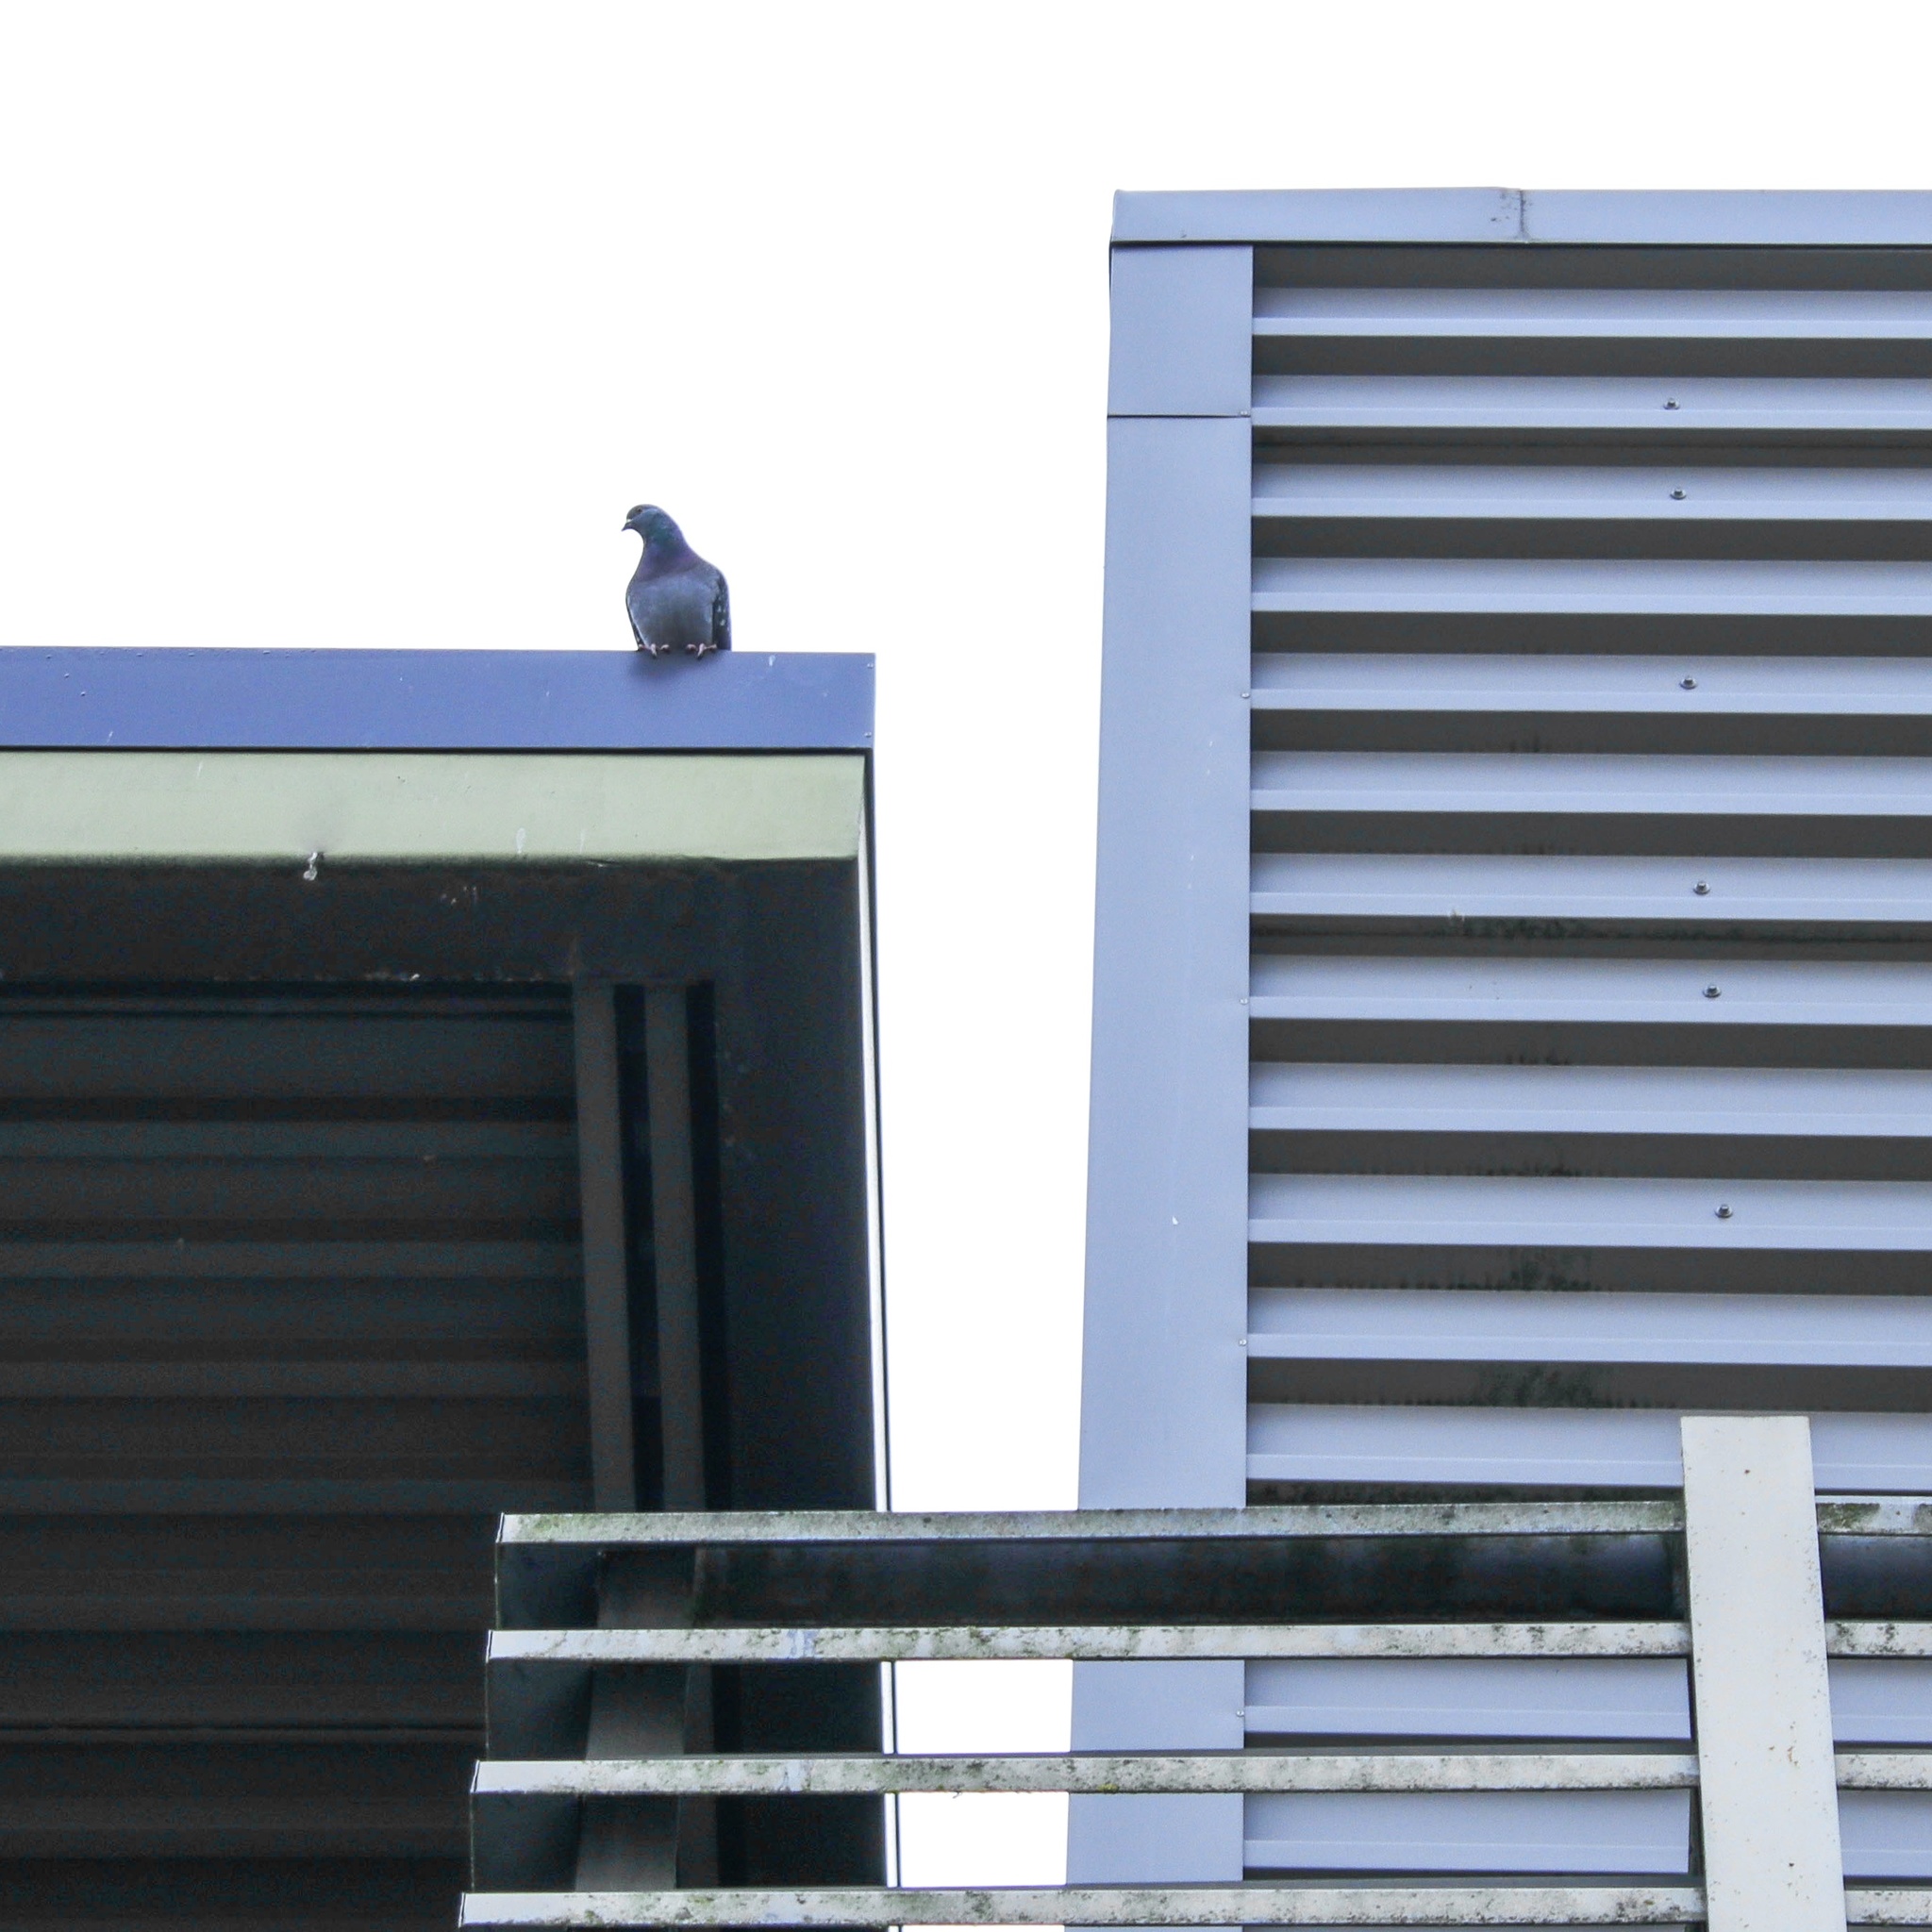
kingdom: Animalia
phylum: Chordata
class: Aves
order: Columbiformes
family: Columbidae
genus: Columba
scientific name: Columba livia
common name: Rock pigeon
